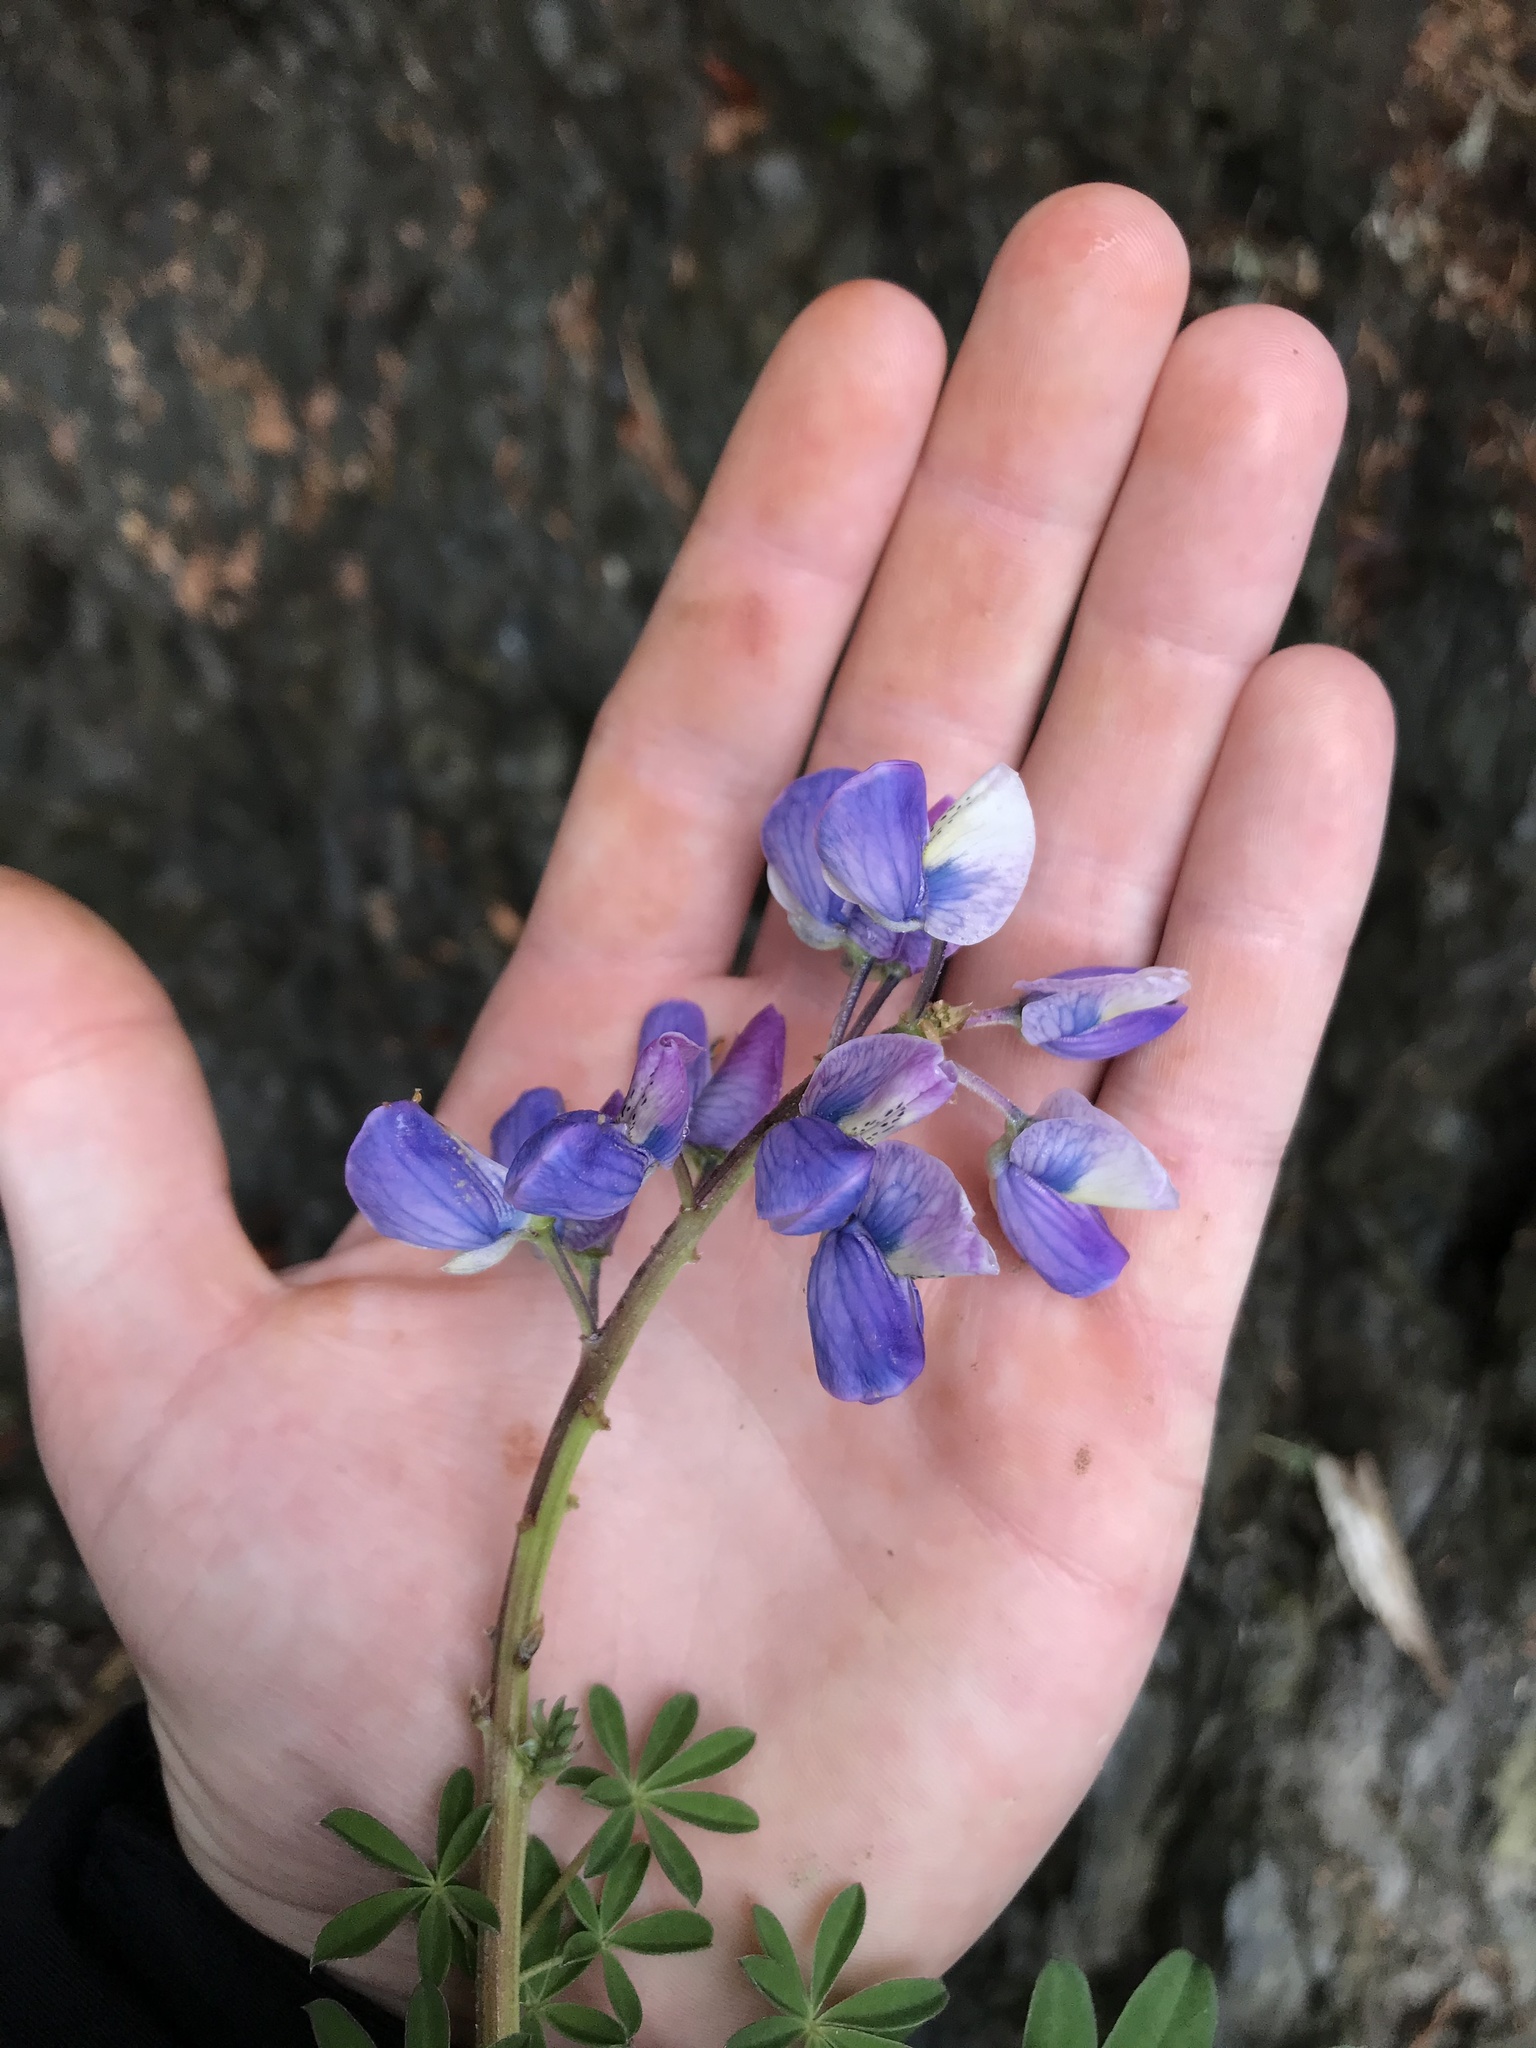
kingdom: Plantae
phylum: Tracheophyta
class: Magnoliopsida
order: Fabales
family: Fabaceae
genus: Lupinus
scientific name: Lupinus nootkatensis
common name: Nootka lupine
